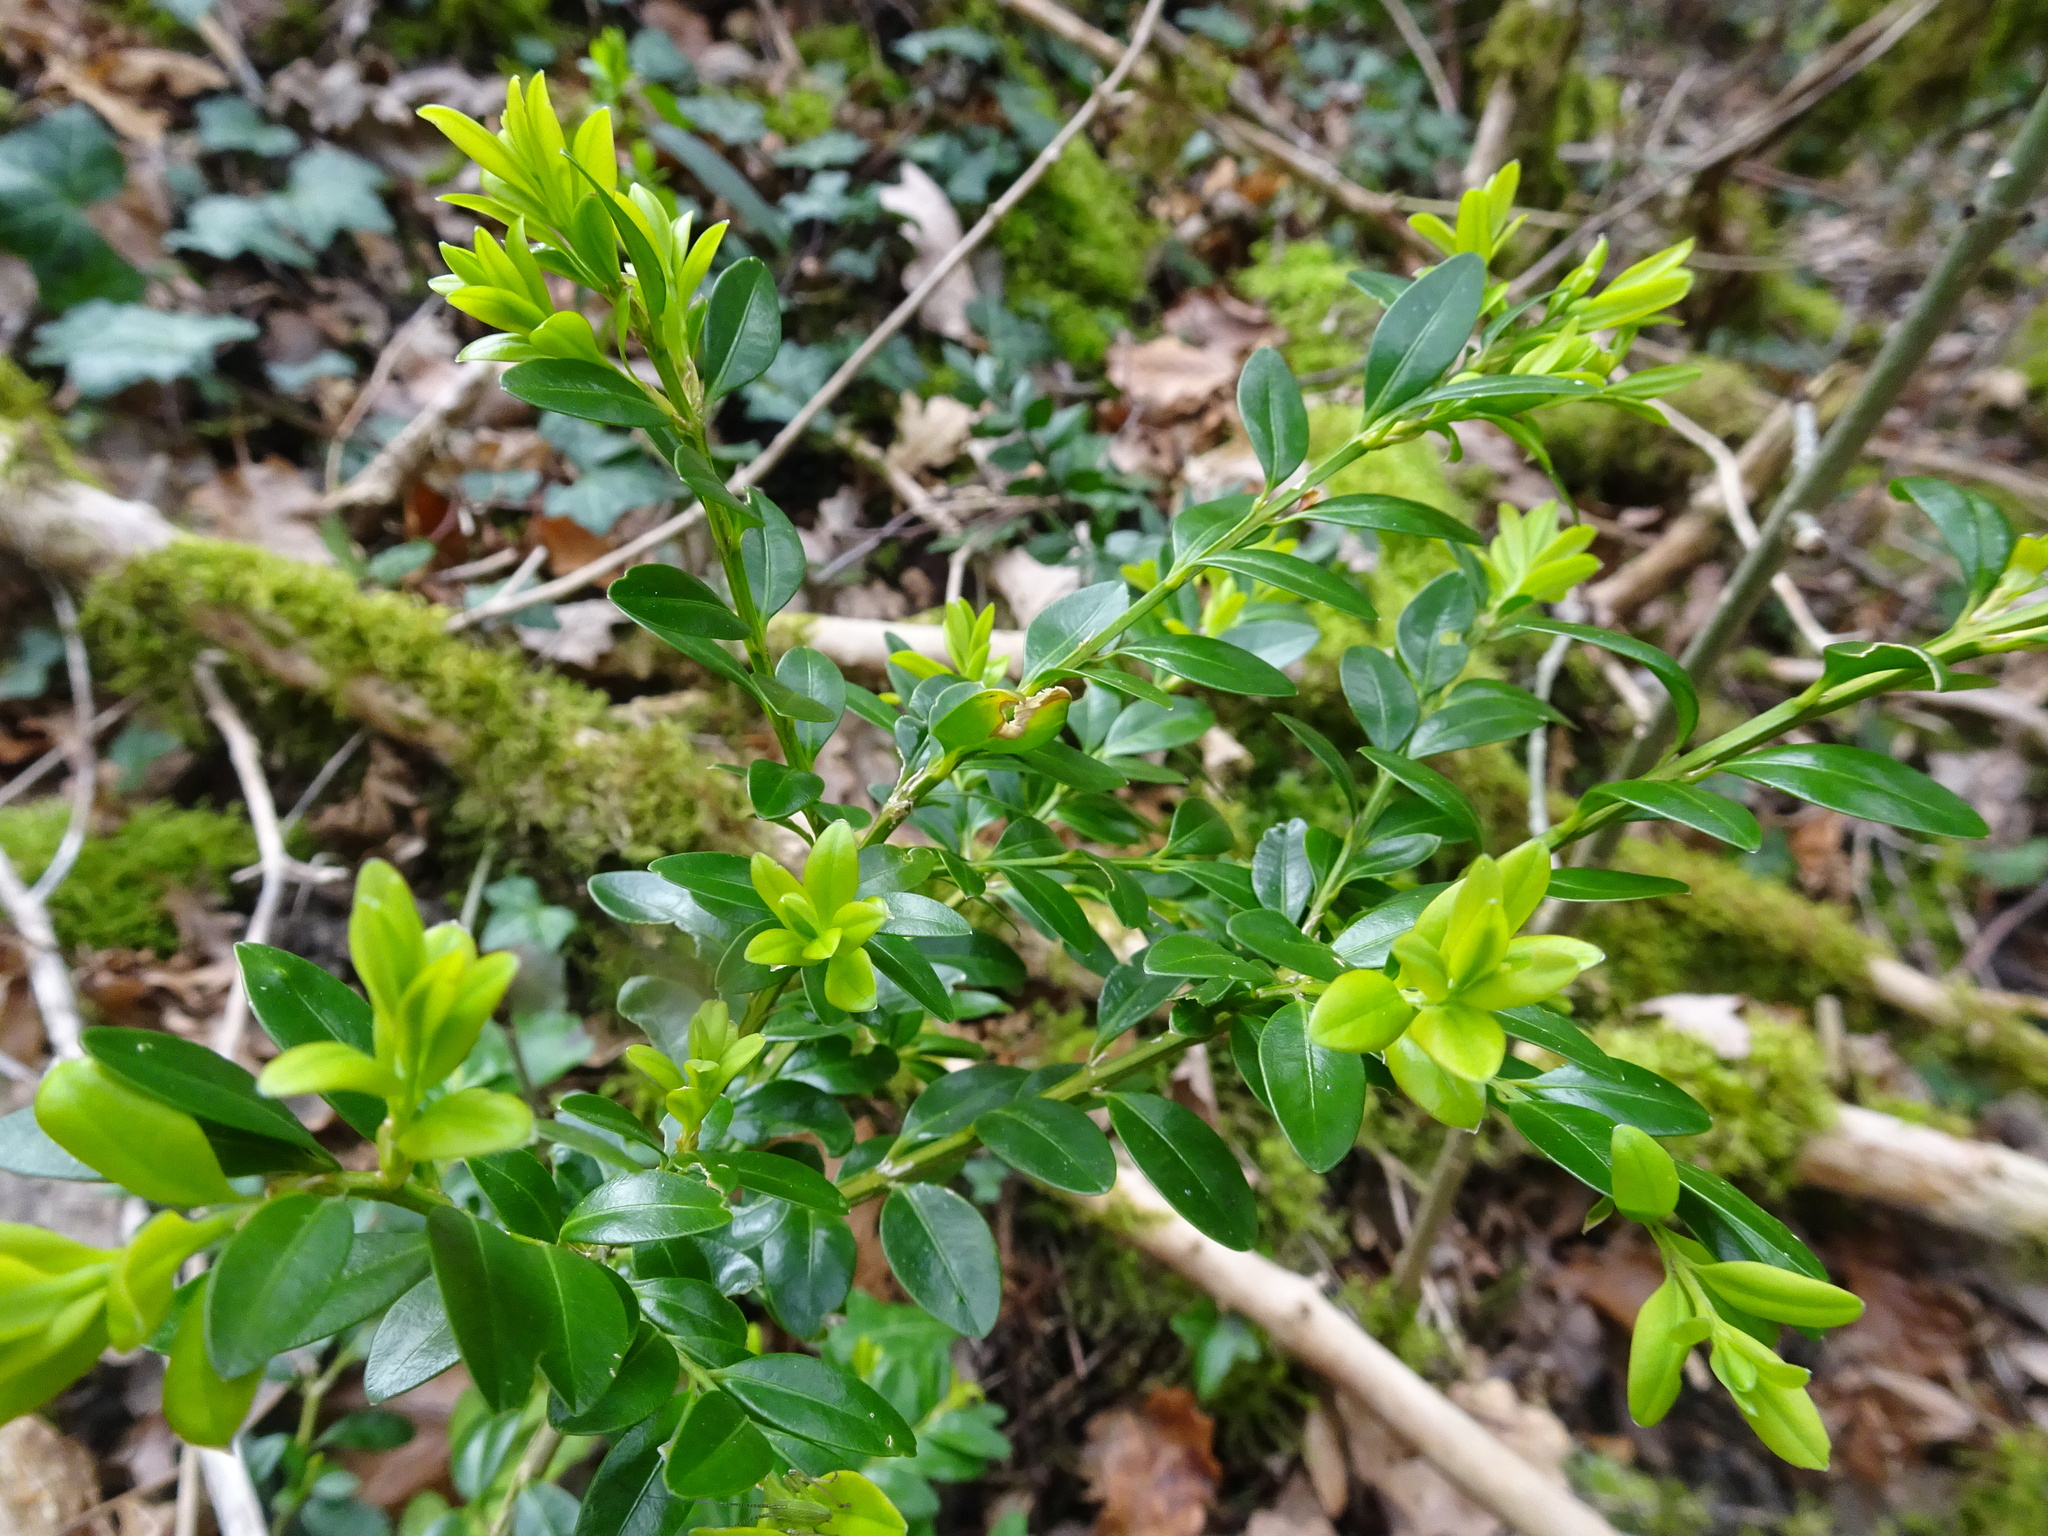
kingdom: Plantae
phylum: Tracheophyta
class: Magnoliopsida
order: Buxales
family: Buxaceae
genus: Buxus
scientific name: Buxus sempervirens
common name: Box
